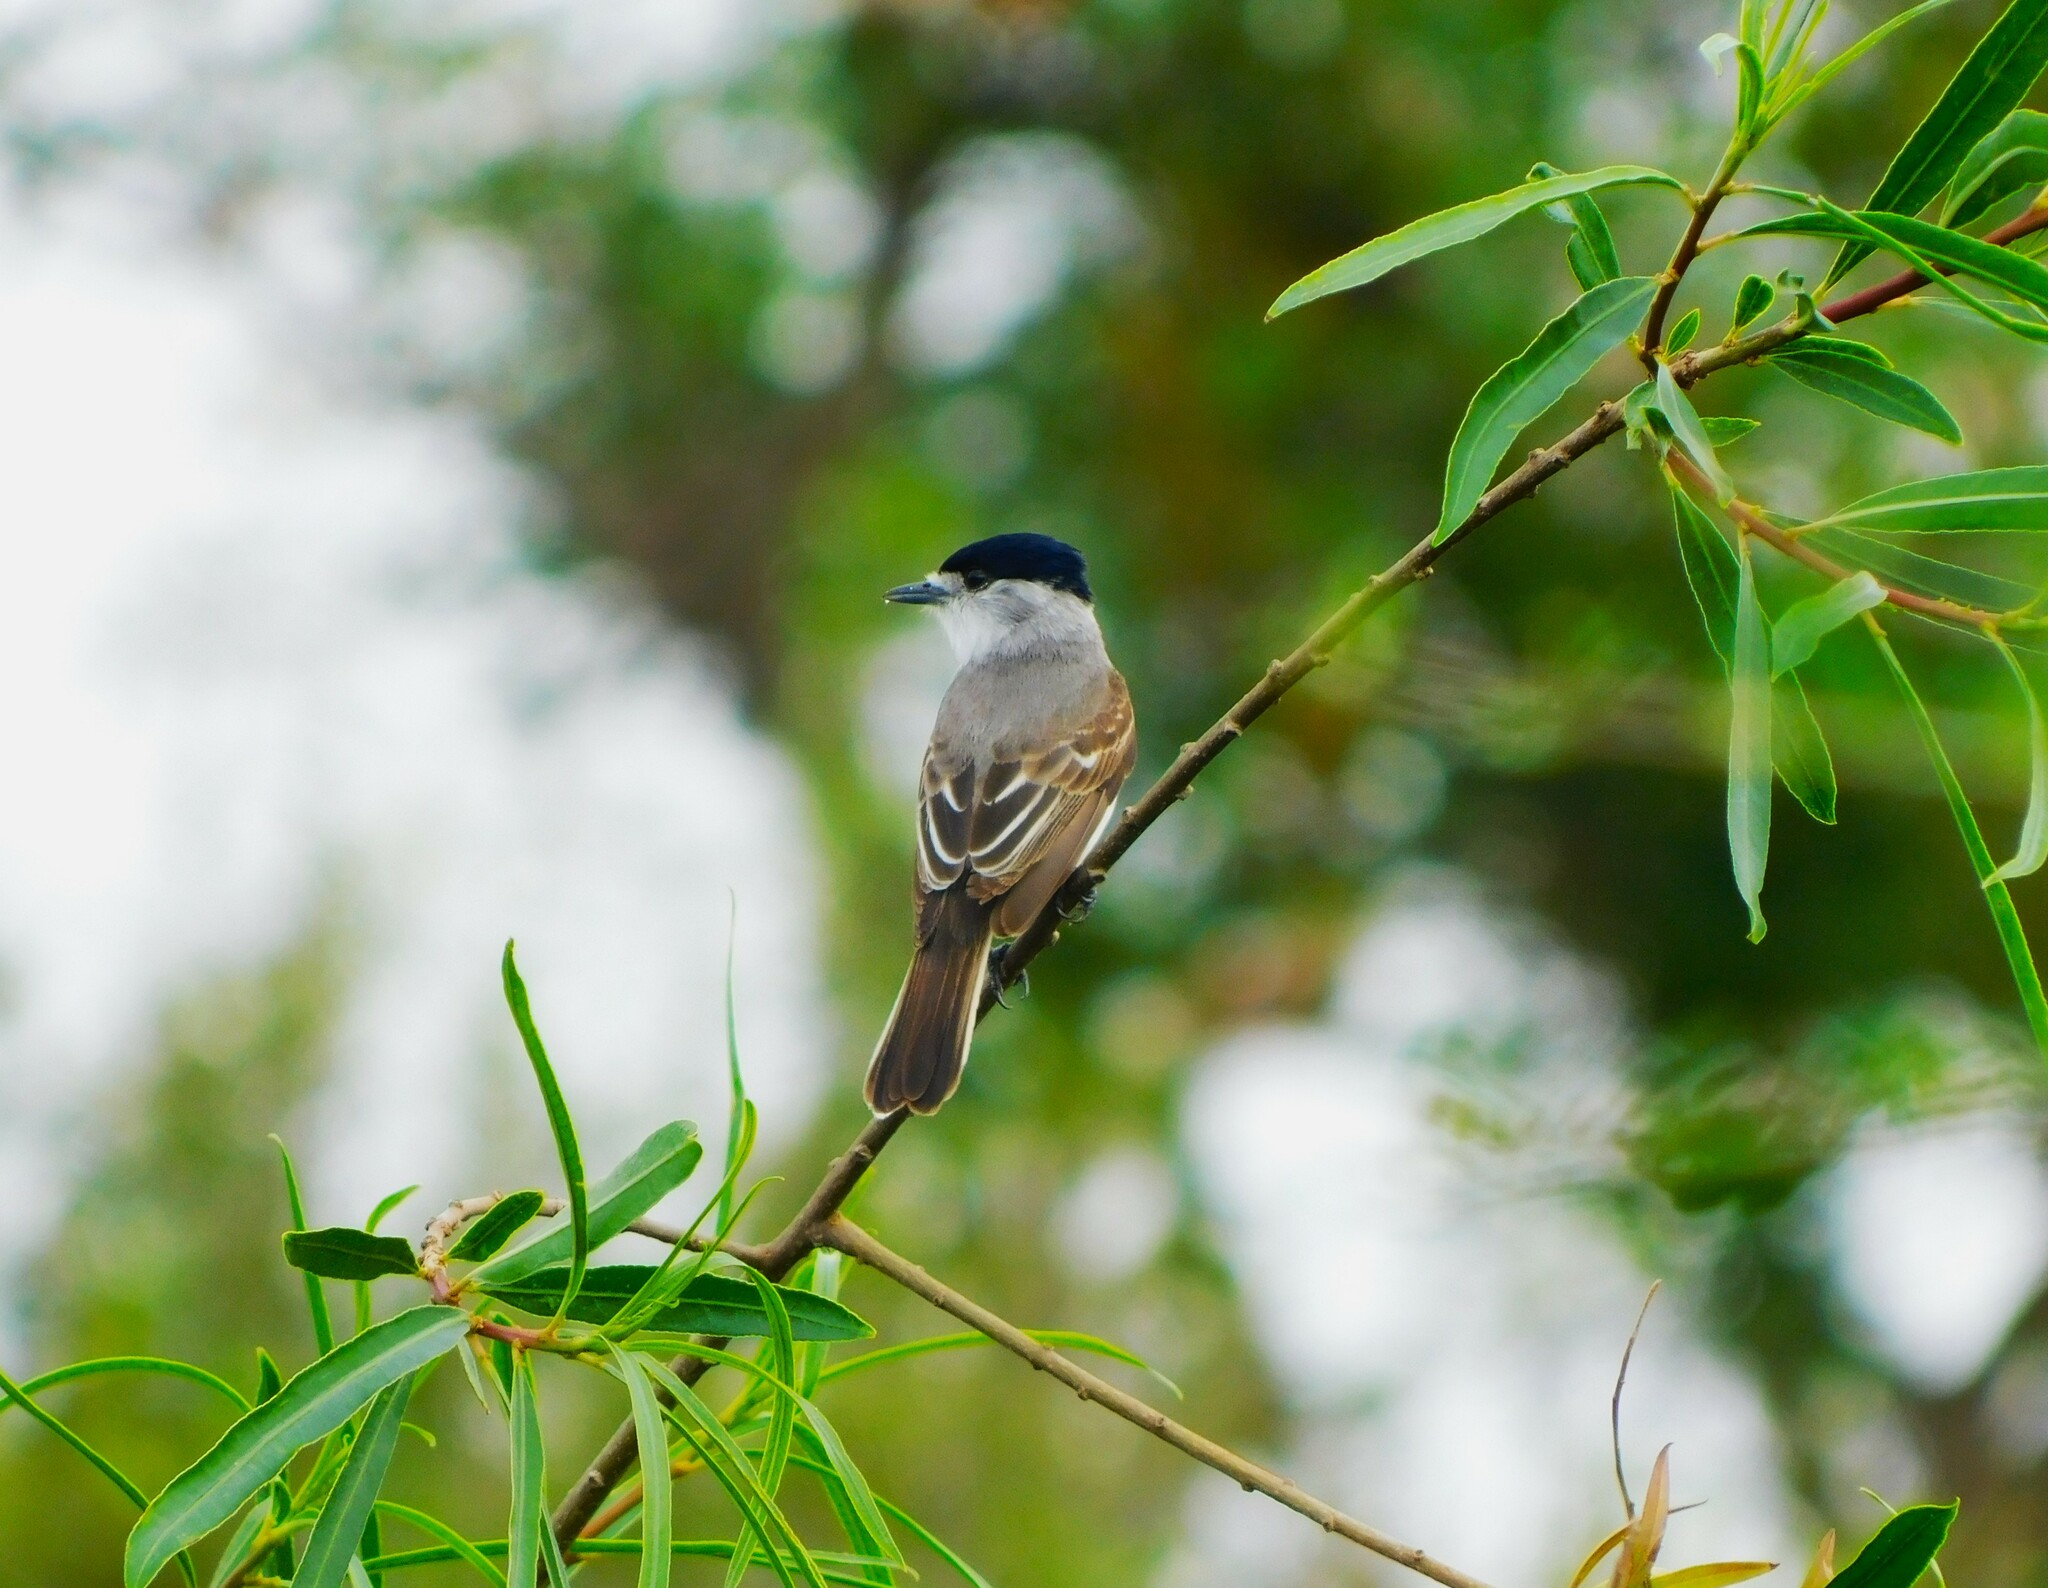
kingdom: Animalia
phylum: Chordata
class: Aves
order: Passeriformes
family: Cotingidae
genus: Xenopsaris
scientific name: Xenopsaris albinucha
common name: White-naped xenopsaris
